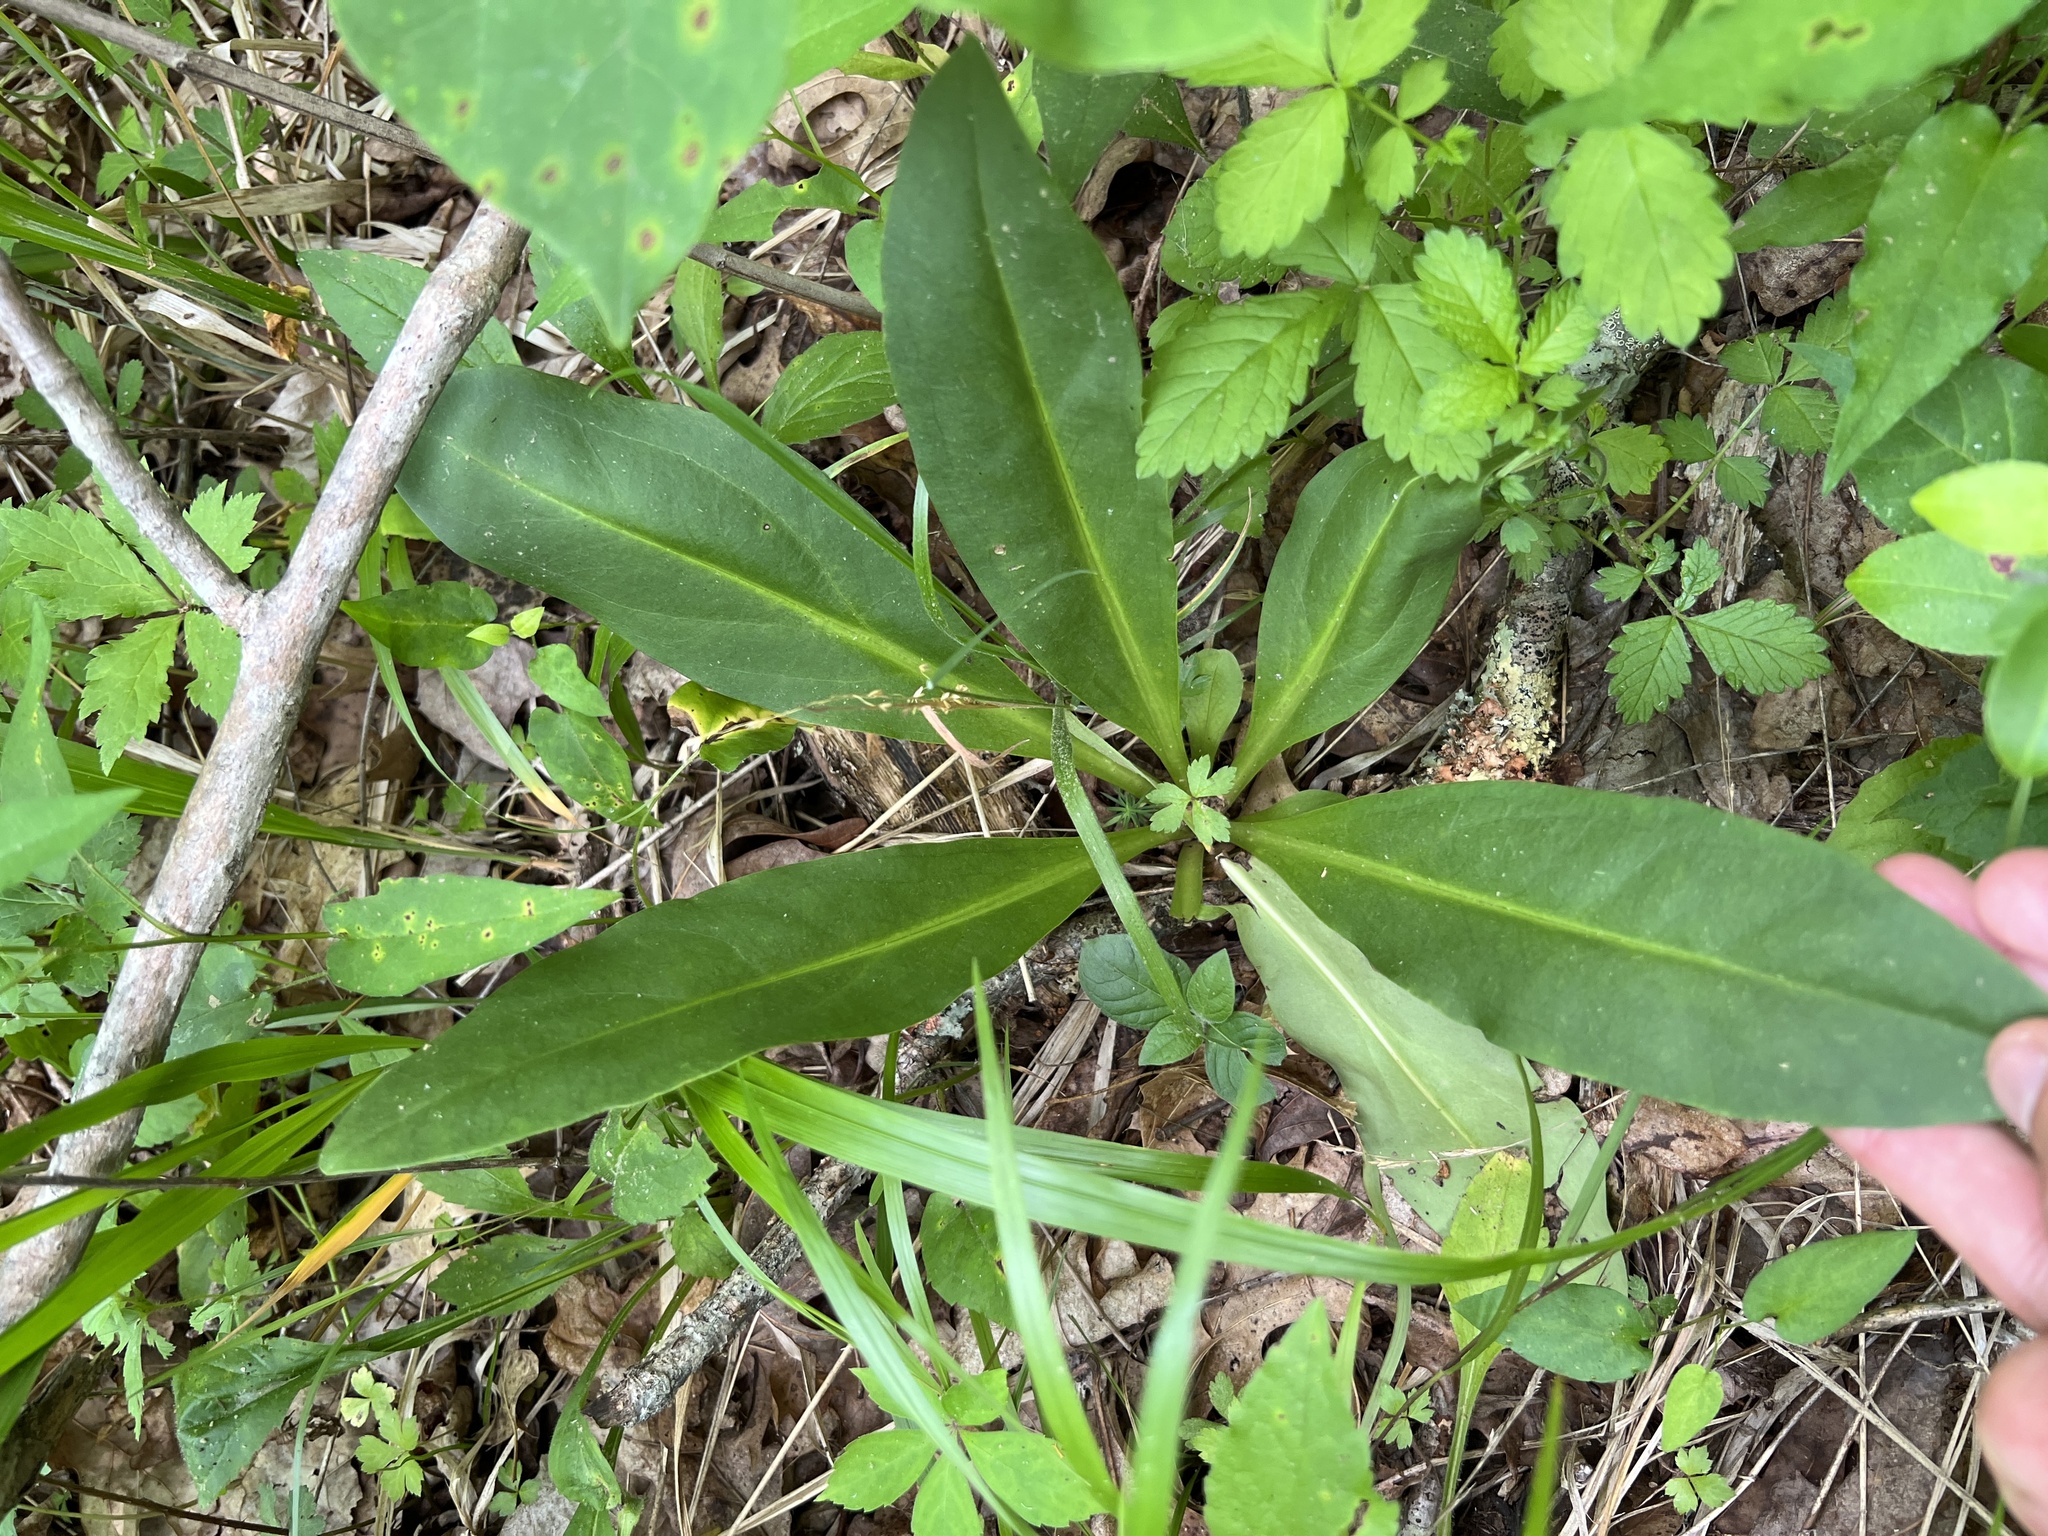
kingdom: Plantae
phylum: Tracheophyta
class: Magnoliopsida
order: Gentianales
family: Gentianaceae
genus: Frasera
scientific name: Frasera caroliniensis
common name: American columbo
